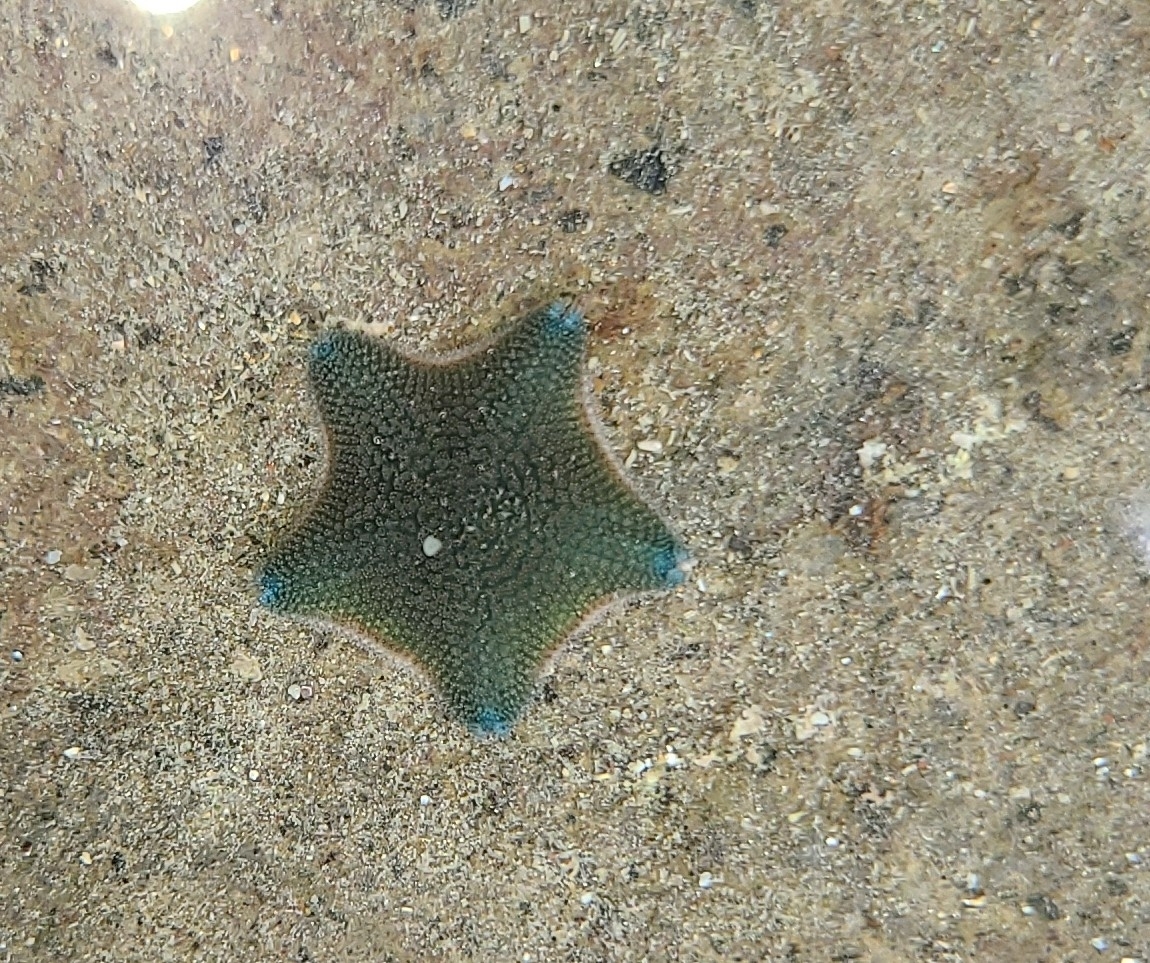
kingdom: Animalia
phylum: Echinodermata
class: Asteroidea
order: Valvatida
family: Asterinidae
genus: Patiriella
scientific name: Patiriella regularis
